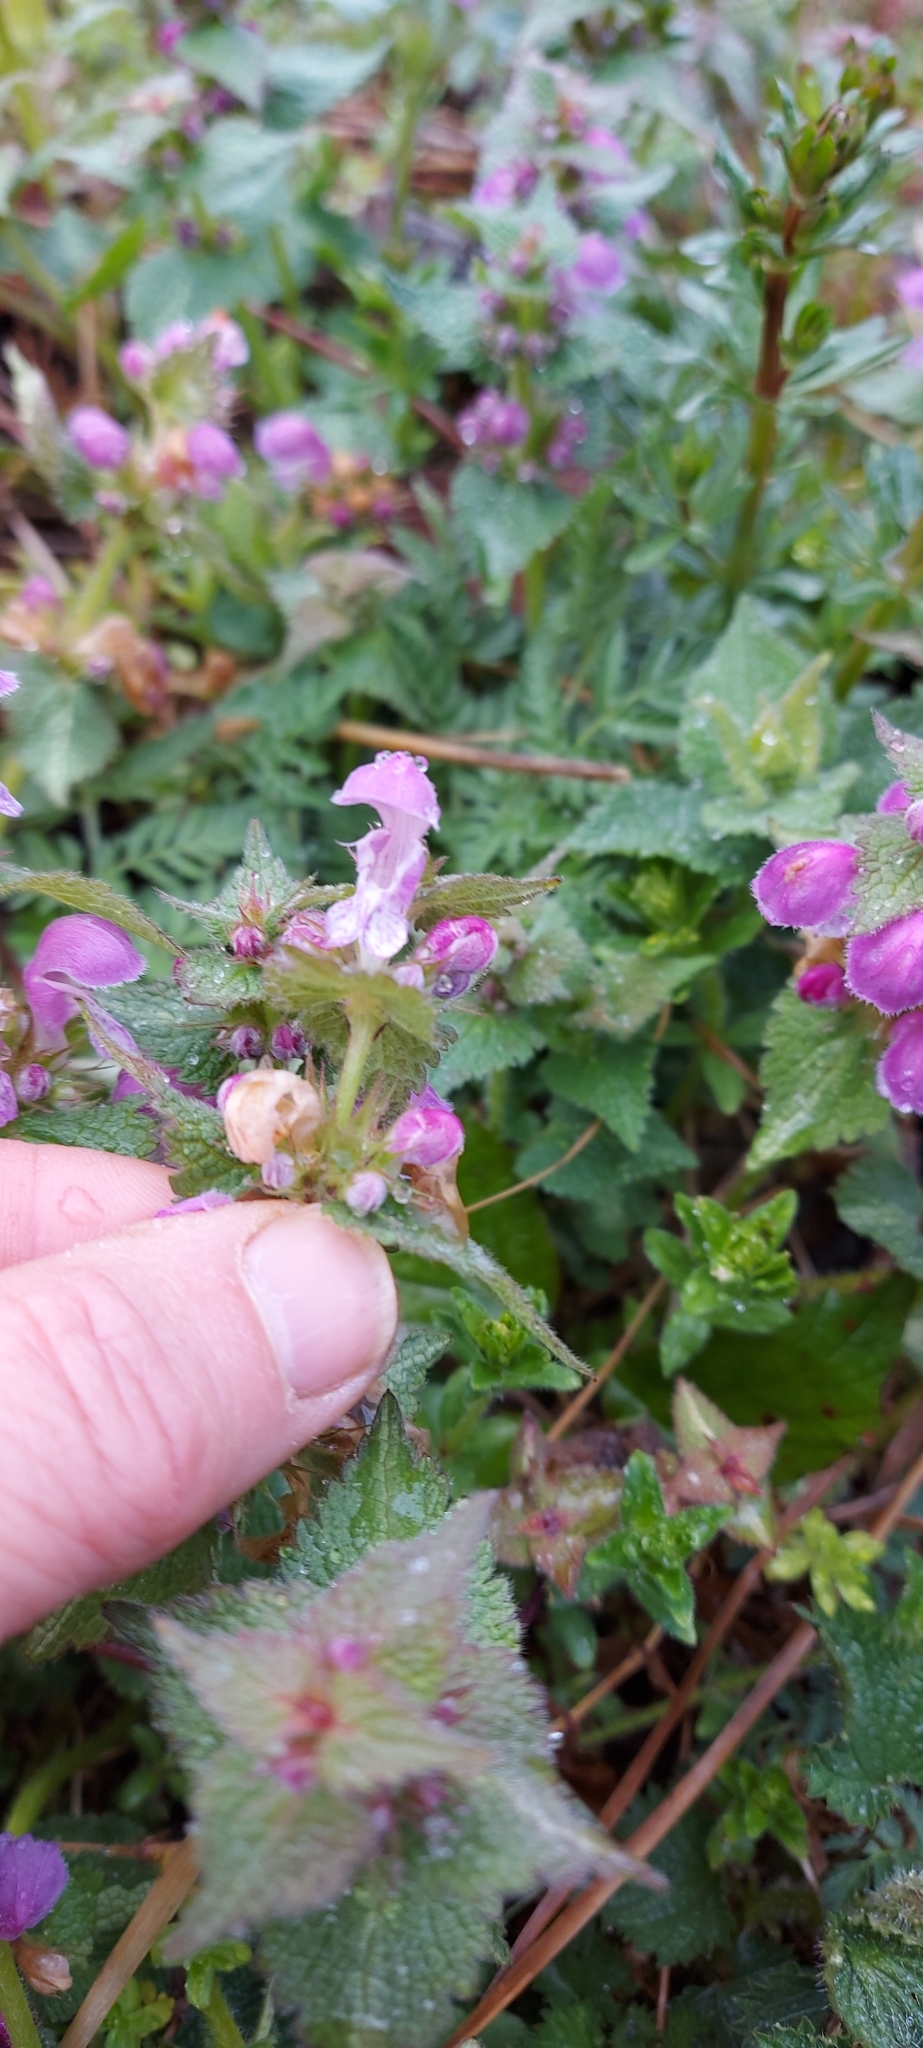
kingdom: Plantae
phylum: Tracheophyta
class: Magnoliopsida
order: Lamiales
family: Lamiaceae
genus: Lamium
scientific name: Lamium maculatum
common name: Spotted dead-nettle
